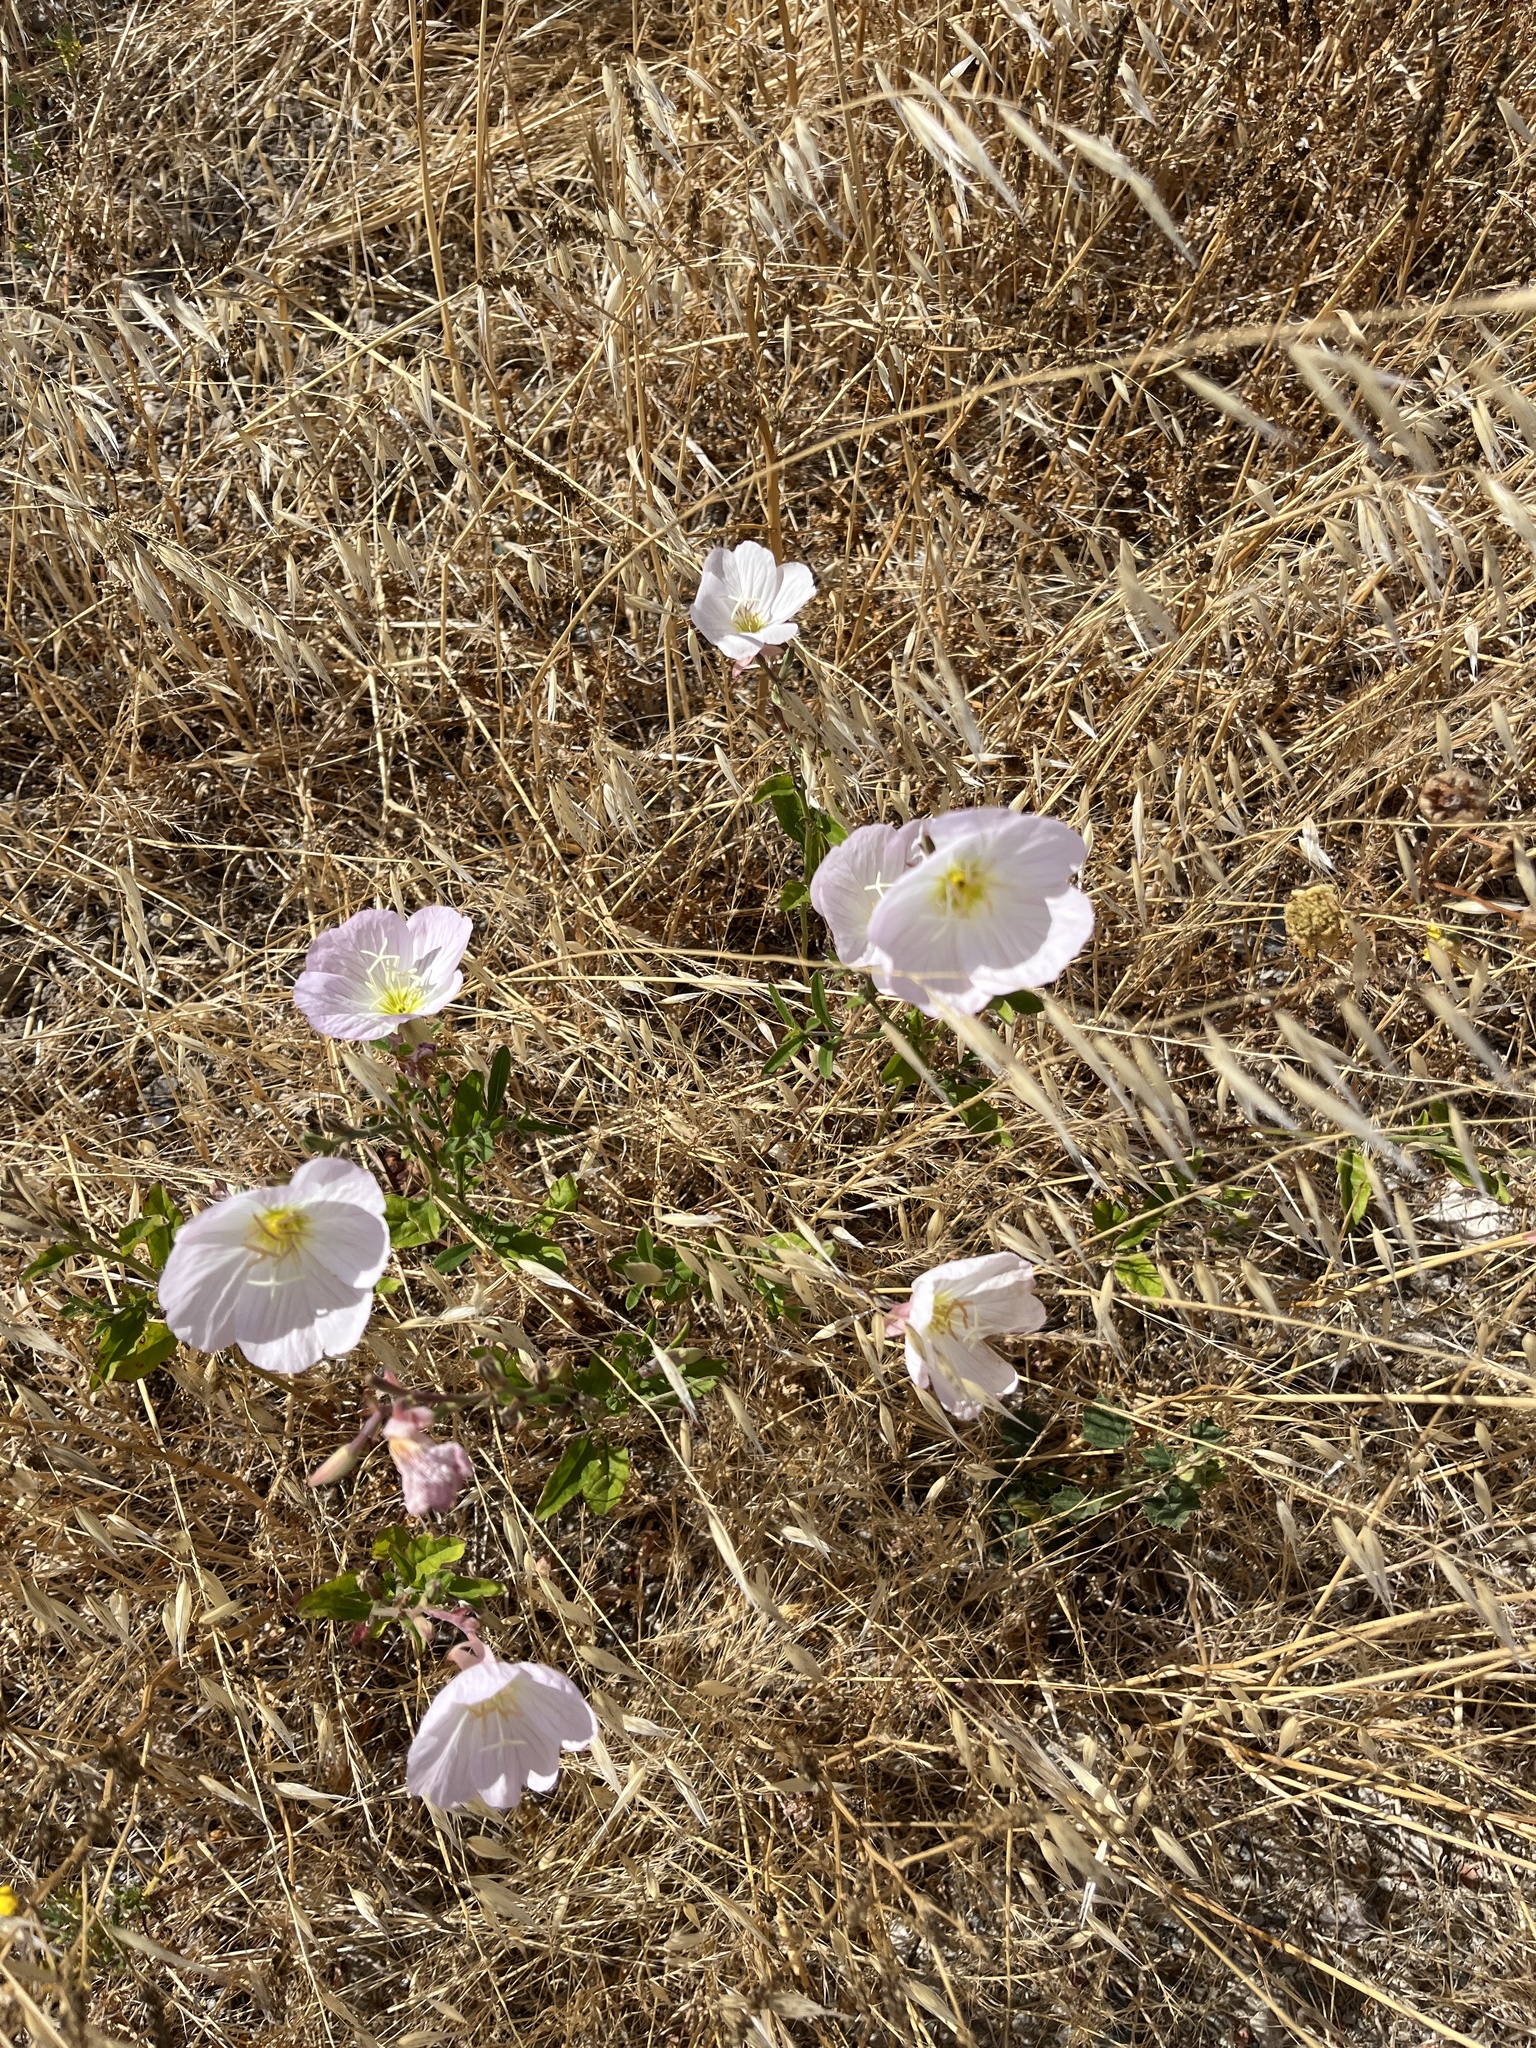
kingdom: Plantae
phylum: Tracheophyta
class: Magnoliopsida
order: Myrtales
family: Onagraceae
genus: Oenothera
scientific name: Oenothera speciosa
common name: White evening-primrose
